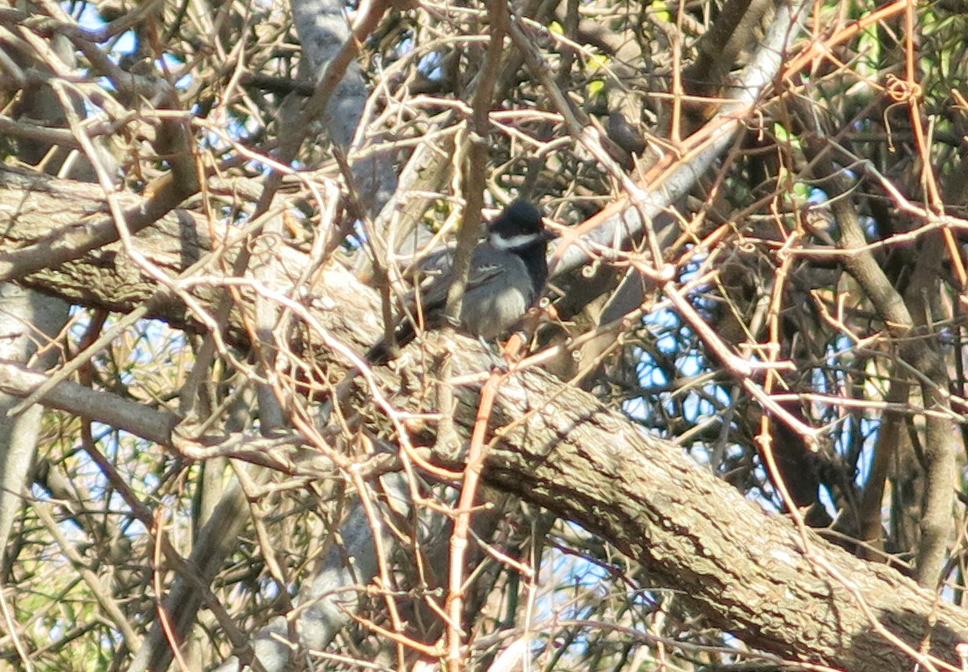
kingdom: Animalia
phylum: Chordata
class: Aves
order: Passeriformes
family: Paridae
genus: Parus
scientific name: Parus cinerascens
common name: Ashy tit
